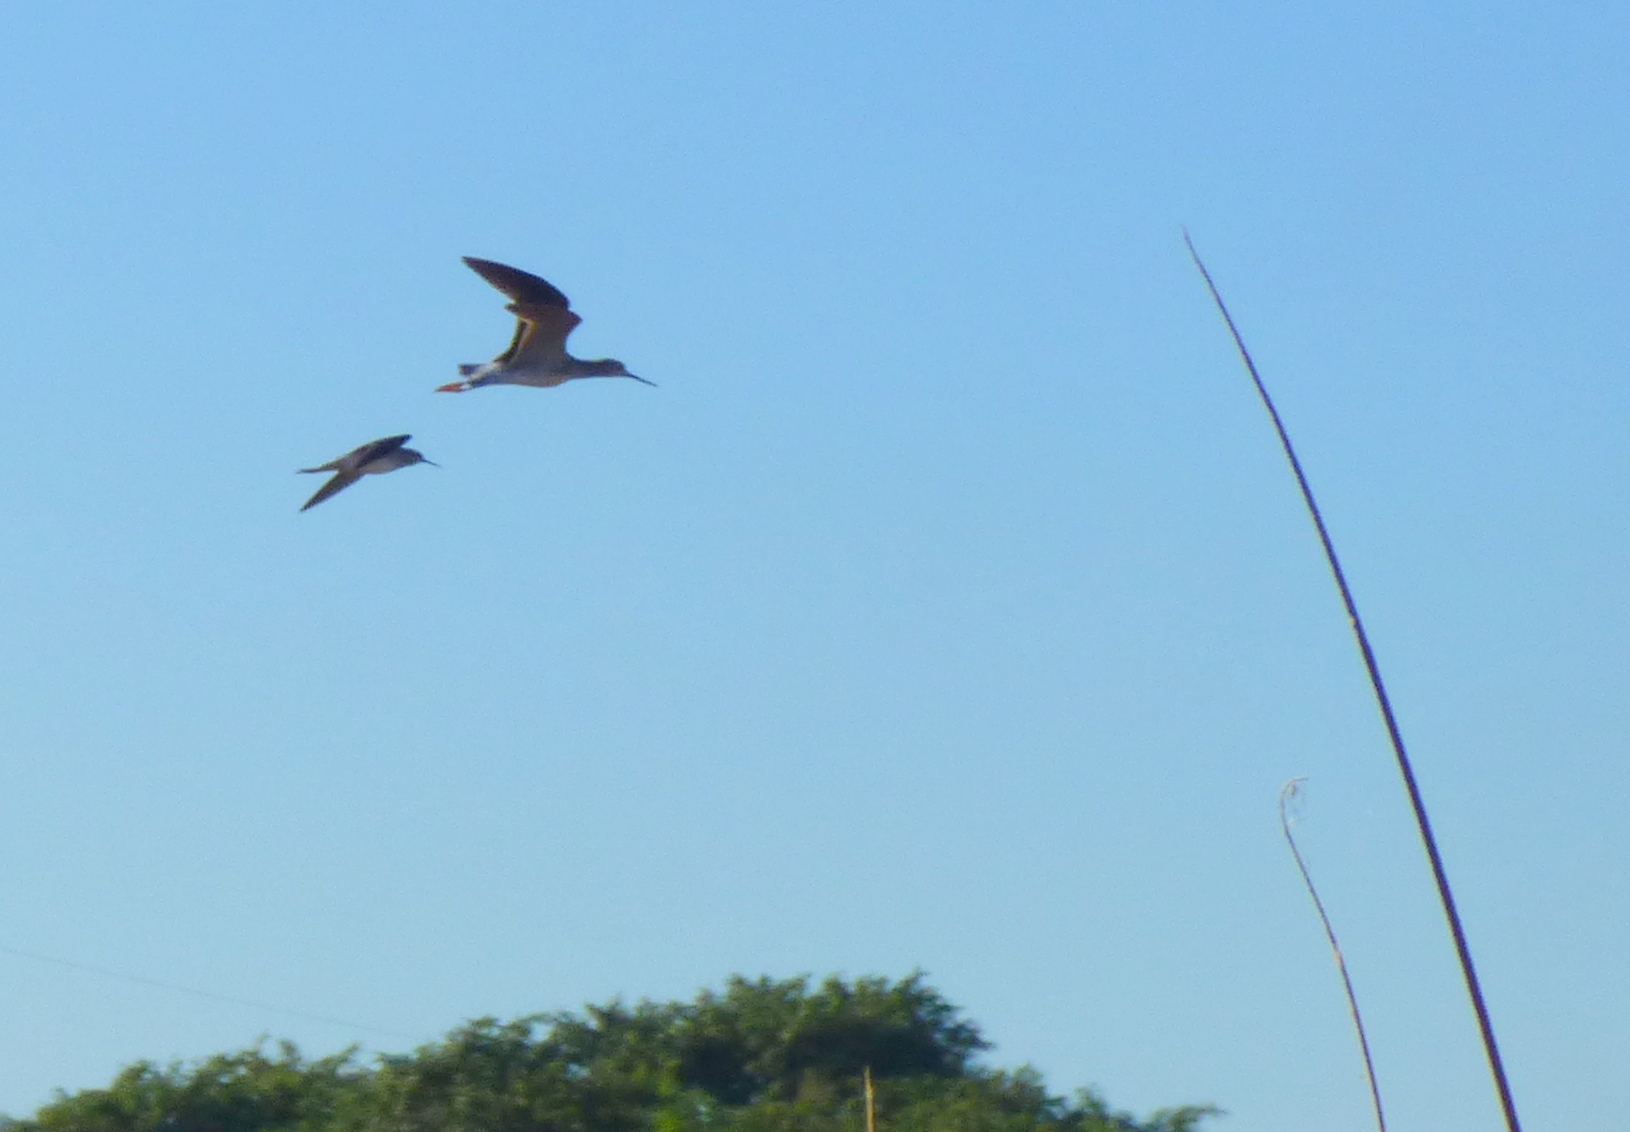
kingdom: Animalia
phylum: Chordata
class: Aves
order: Charadriiformes
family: Scolopacidae
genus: Tringa
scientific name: Tringa melanoleuca
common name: Greater yellowlegs
